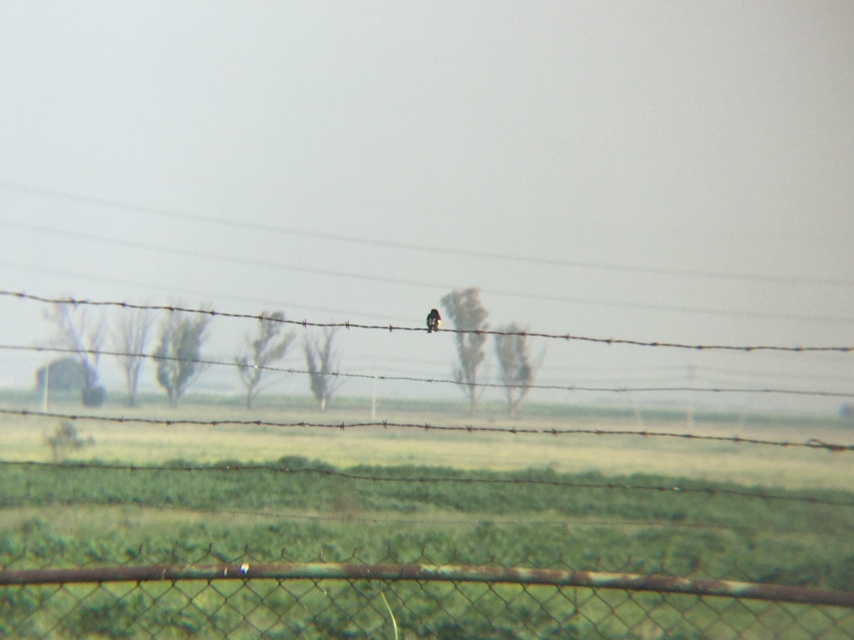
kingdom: Animalia
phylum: Chordata
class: Aves
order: Passeriformes
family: Fringillidae
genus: Spinus
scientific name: Spinus psaltria
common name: Lesser goldfinch
